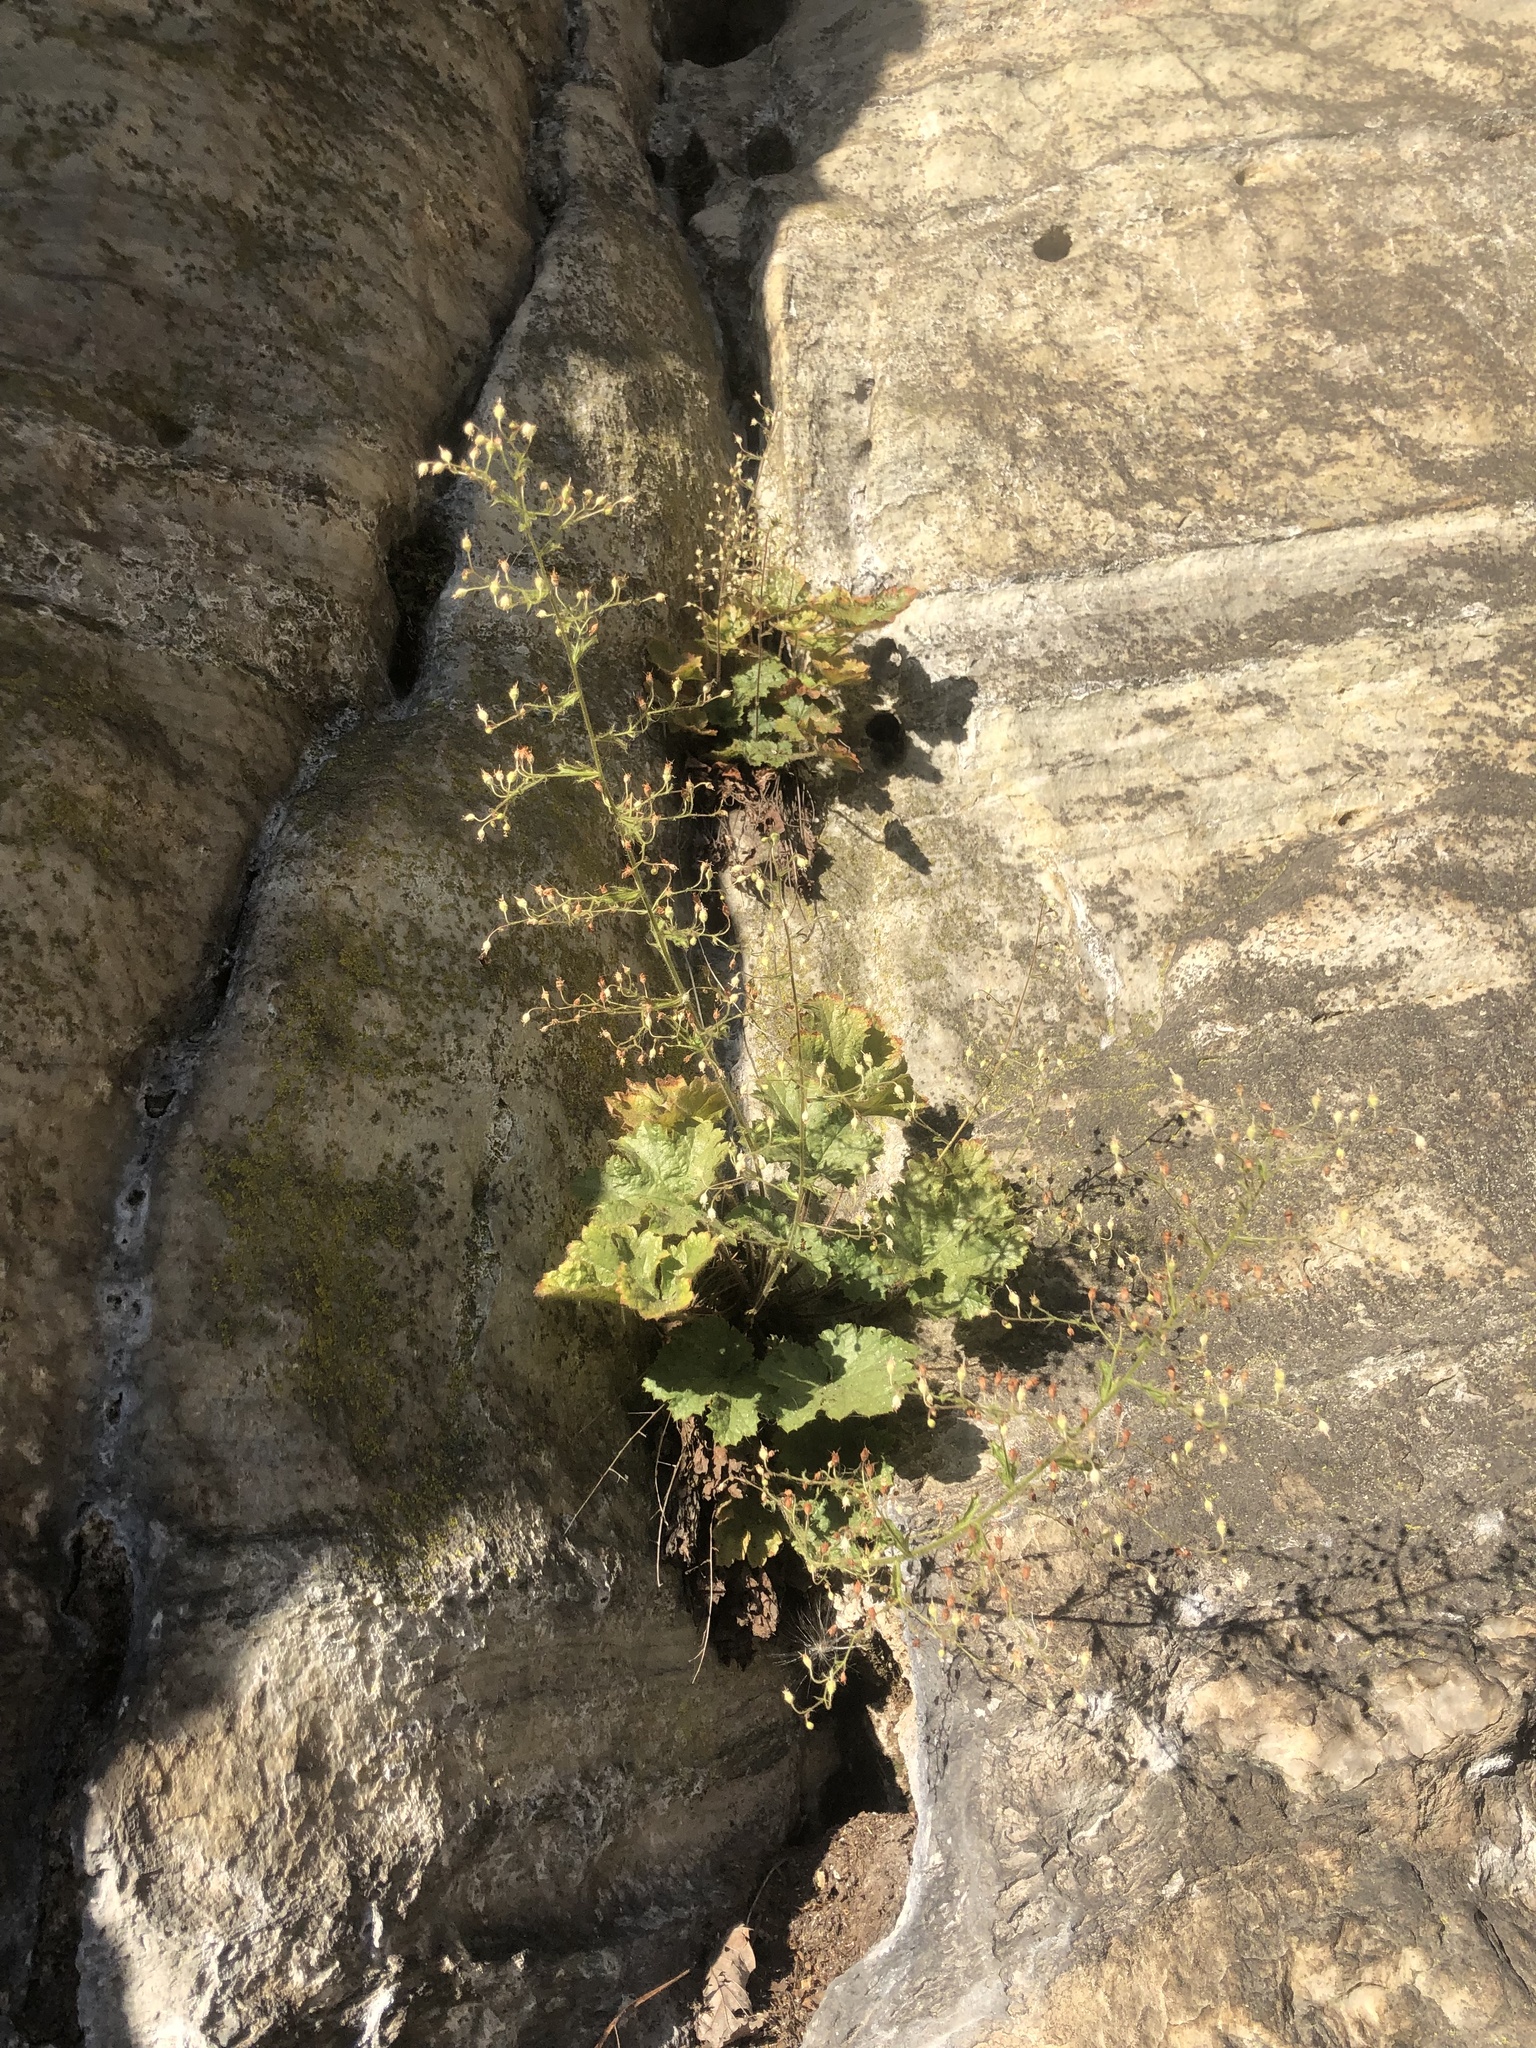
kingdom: Plantae
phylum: Tracheophyta
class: Magnoliopsida
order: Saxifragales
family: Saxifragaceae
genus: Heuchera
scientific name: Heuchera parviflora
